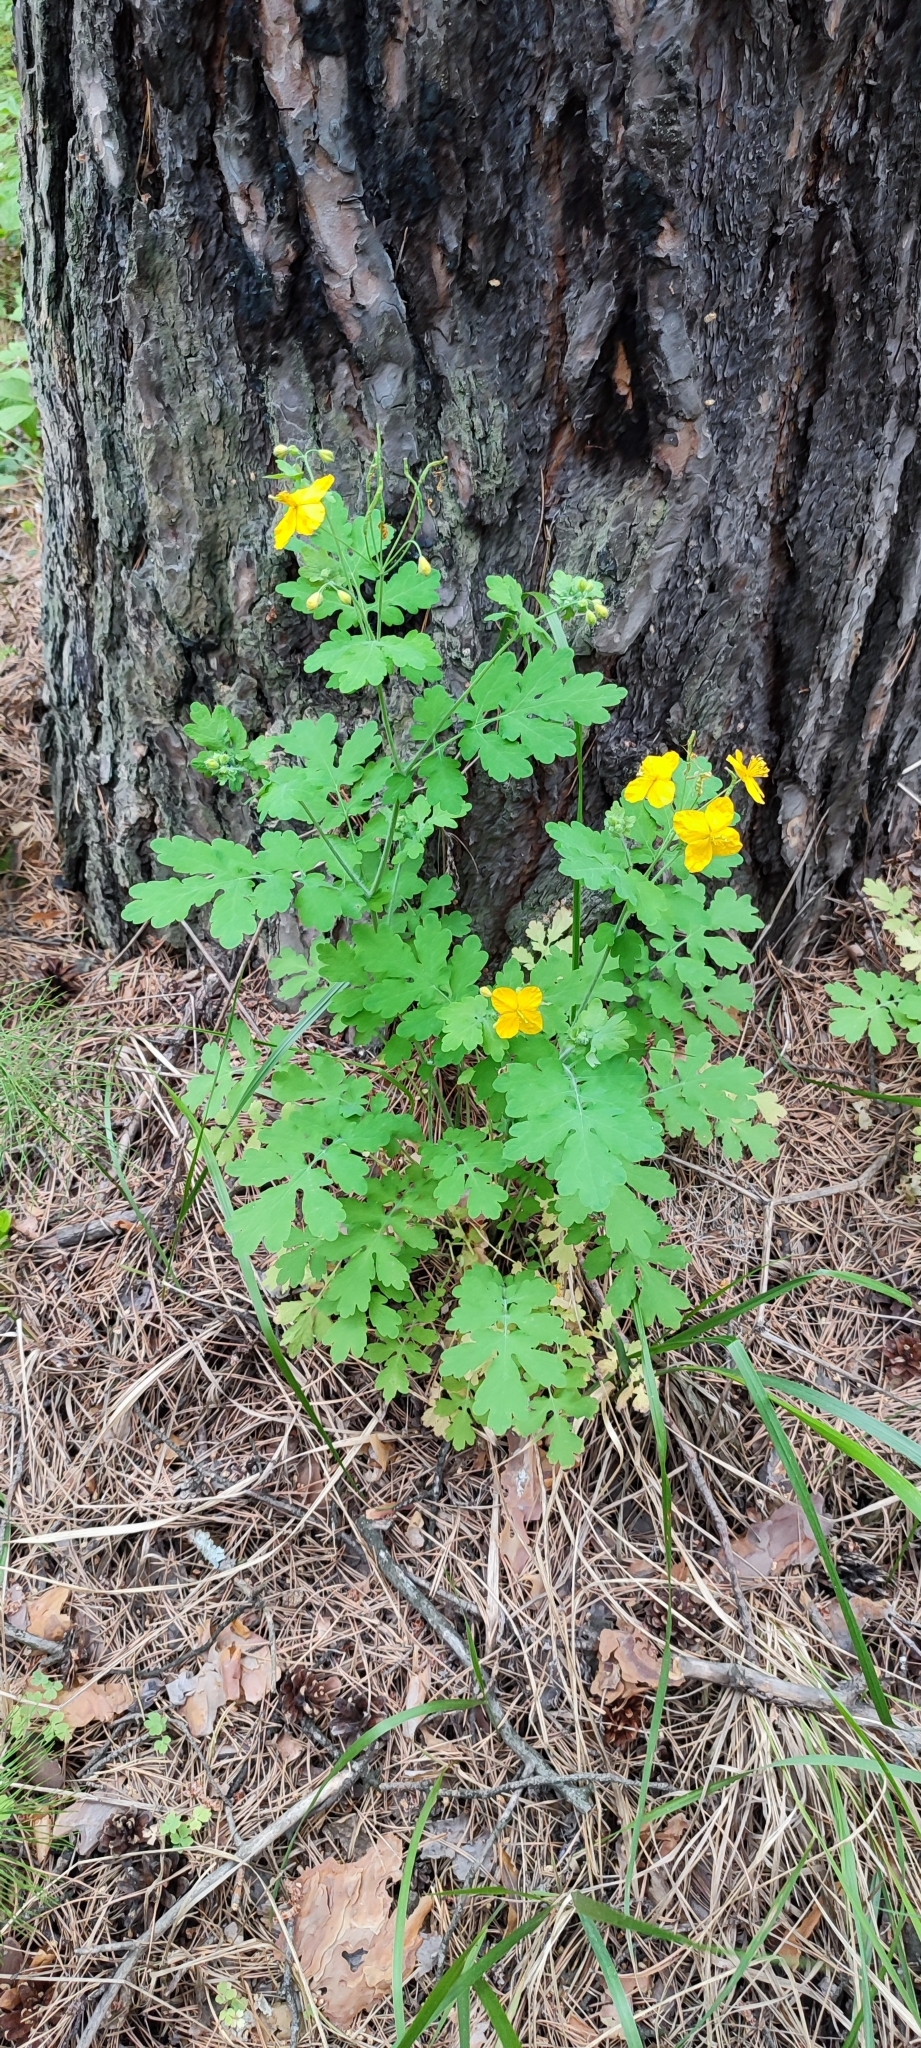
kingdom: Plantae
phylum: Tracheophyta
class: Magnoliopsida
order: Ranunculales
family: Papaveraceae
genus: Chelidonium
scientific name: Chelidonium majus
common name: Greater celandine
